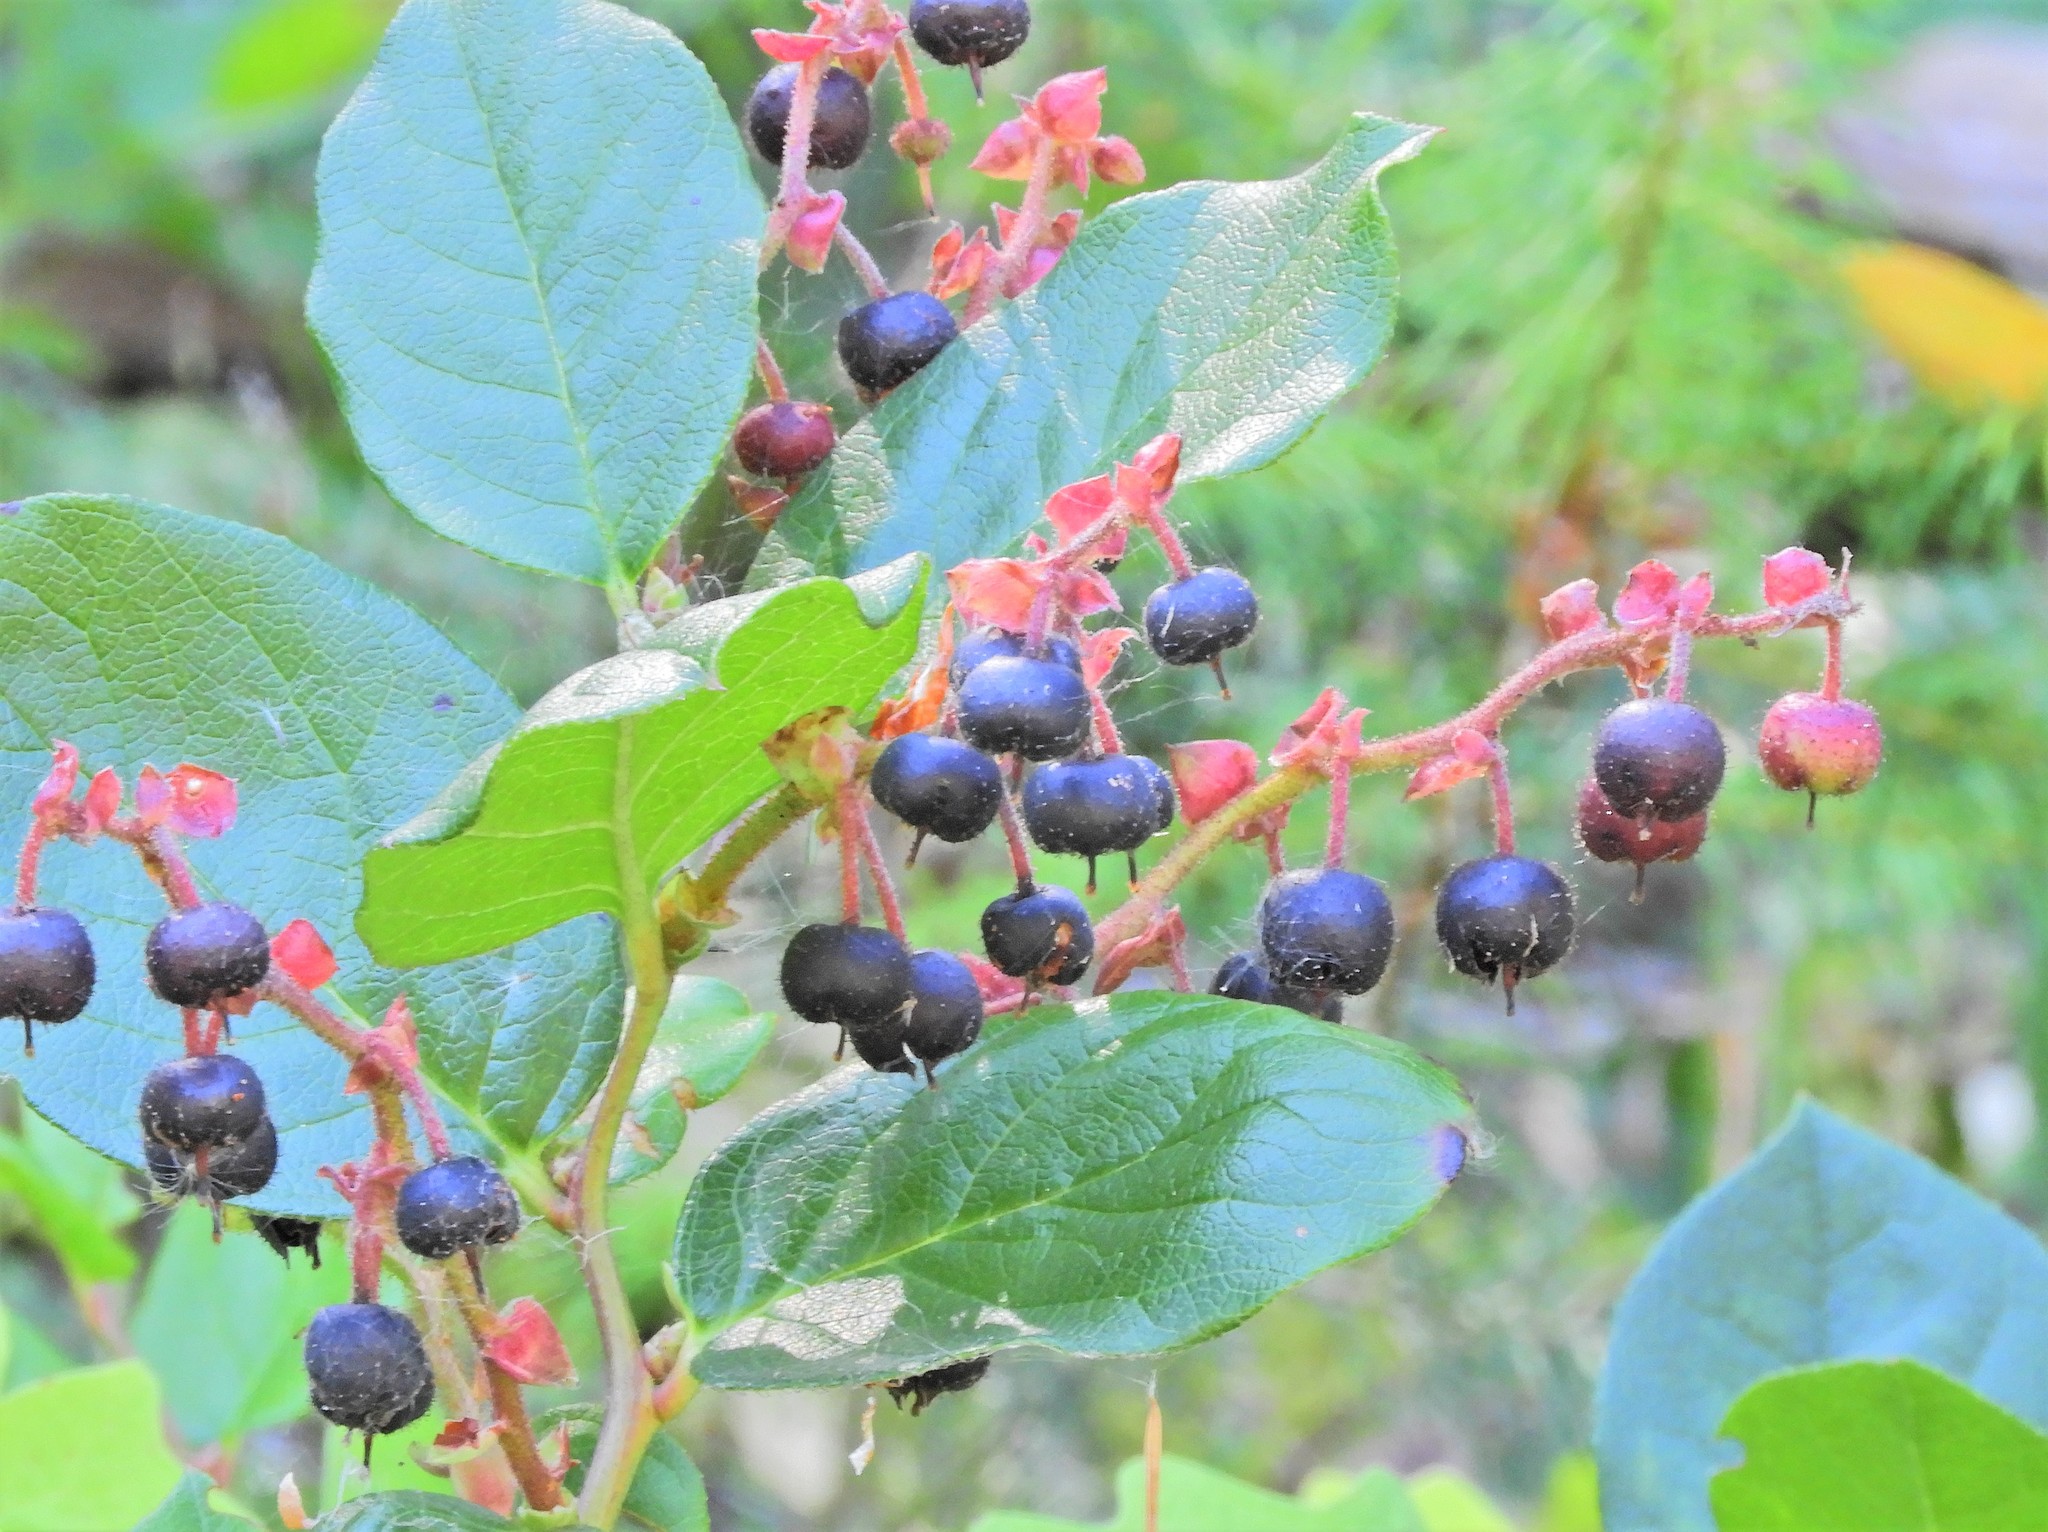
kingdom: Plantae
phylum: Tracheophyta
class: Magnoliopsida
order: Ericales
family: Ericaceae
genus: Gaultheria
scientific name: Gaultheria shallon
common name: Shallon
